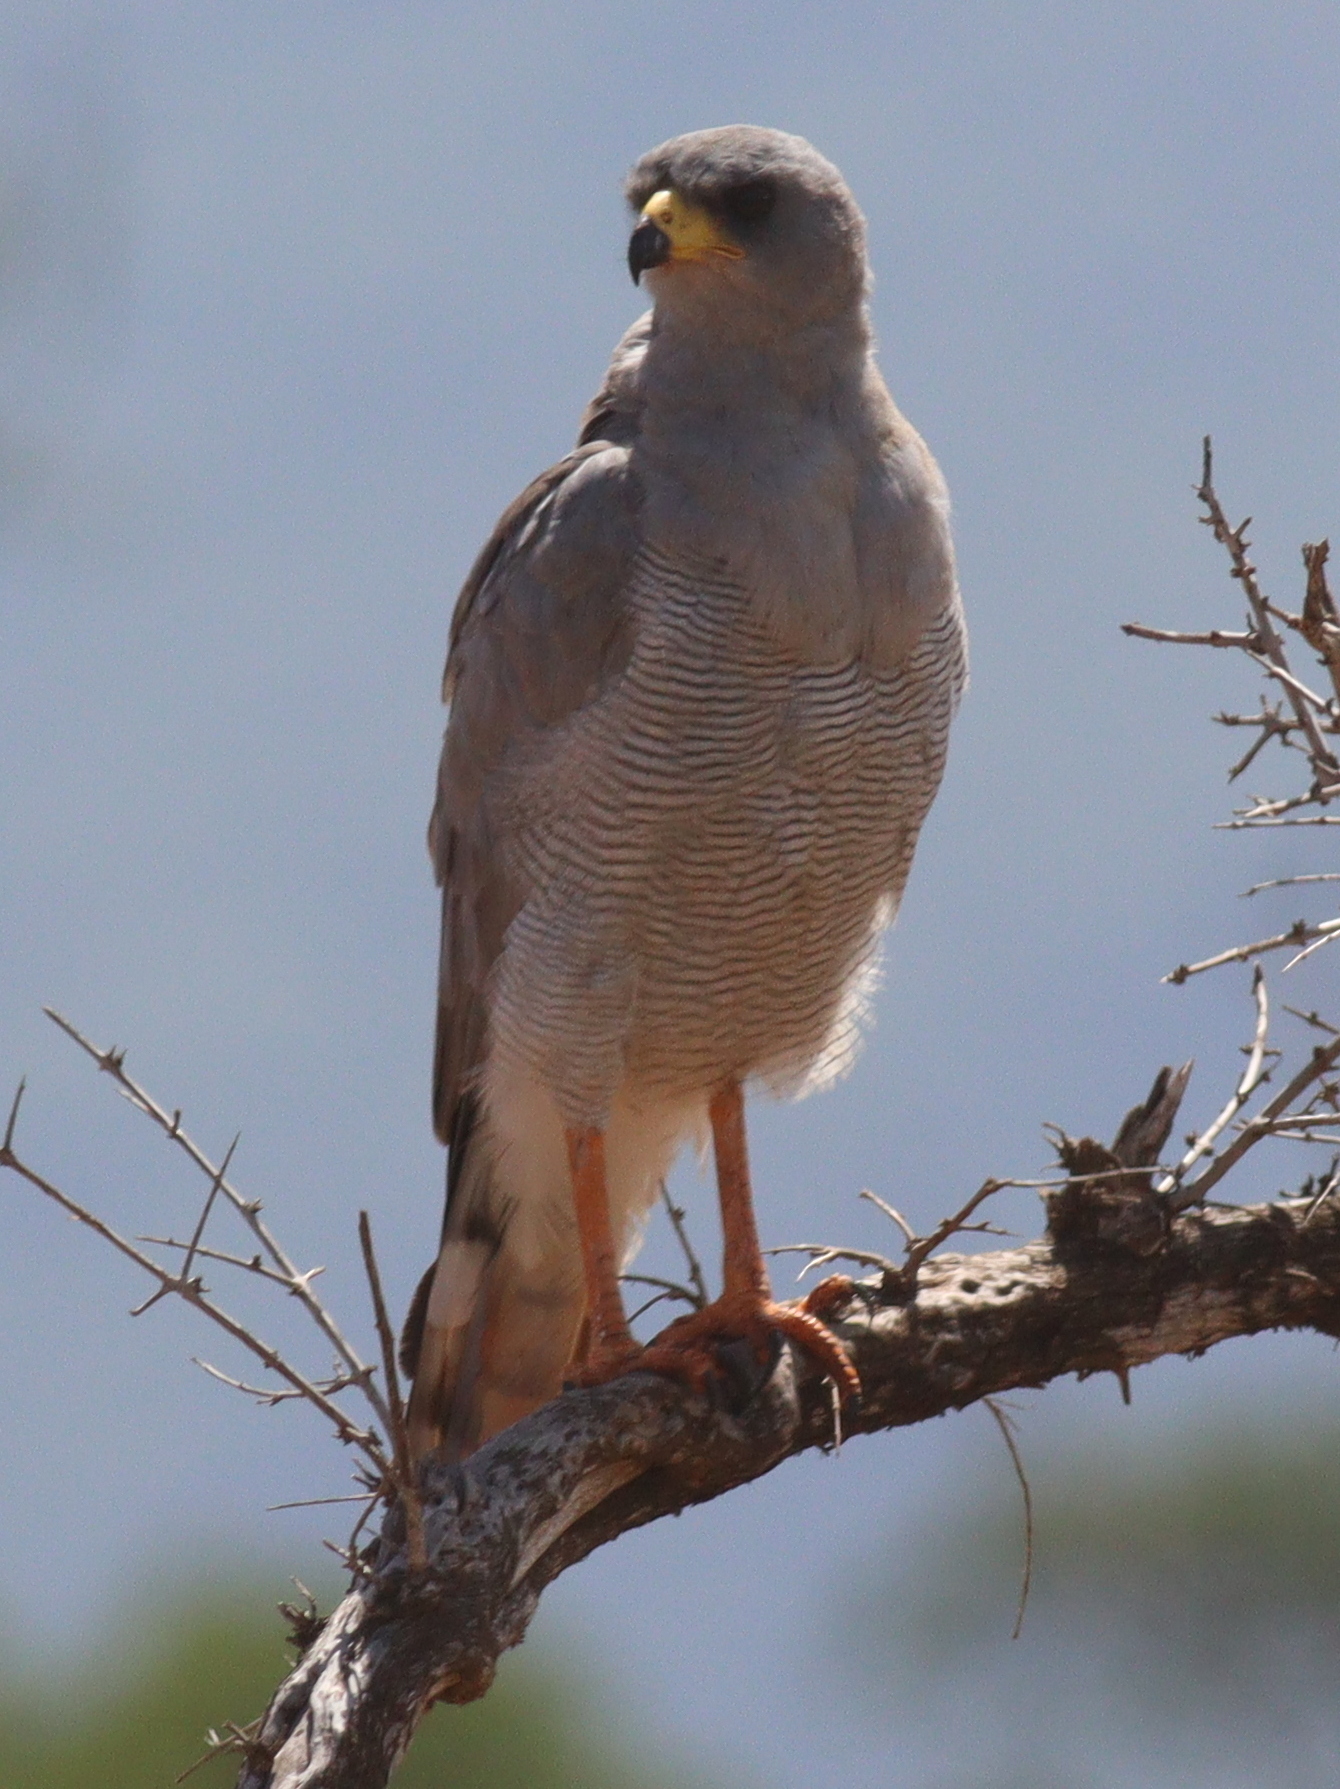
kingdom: Animalia
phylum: Chordata
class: Aves
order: Accipitriformes
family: Accipitridae
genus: Melierax
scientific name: Melierax poliopterus
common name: Eastern chanting goshawk
